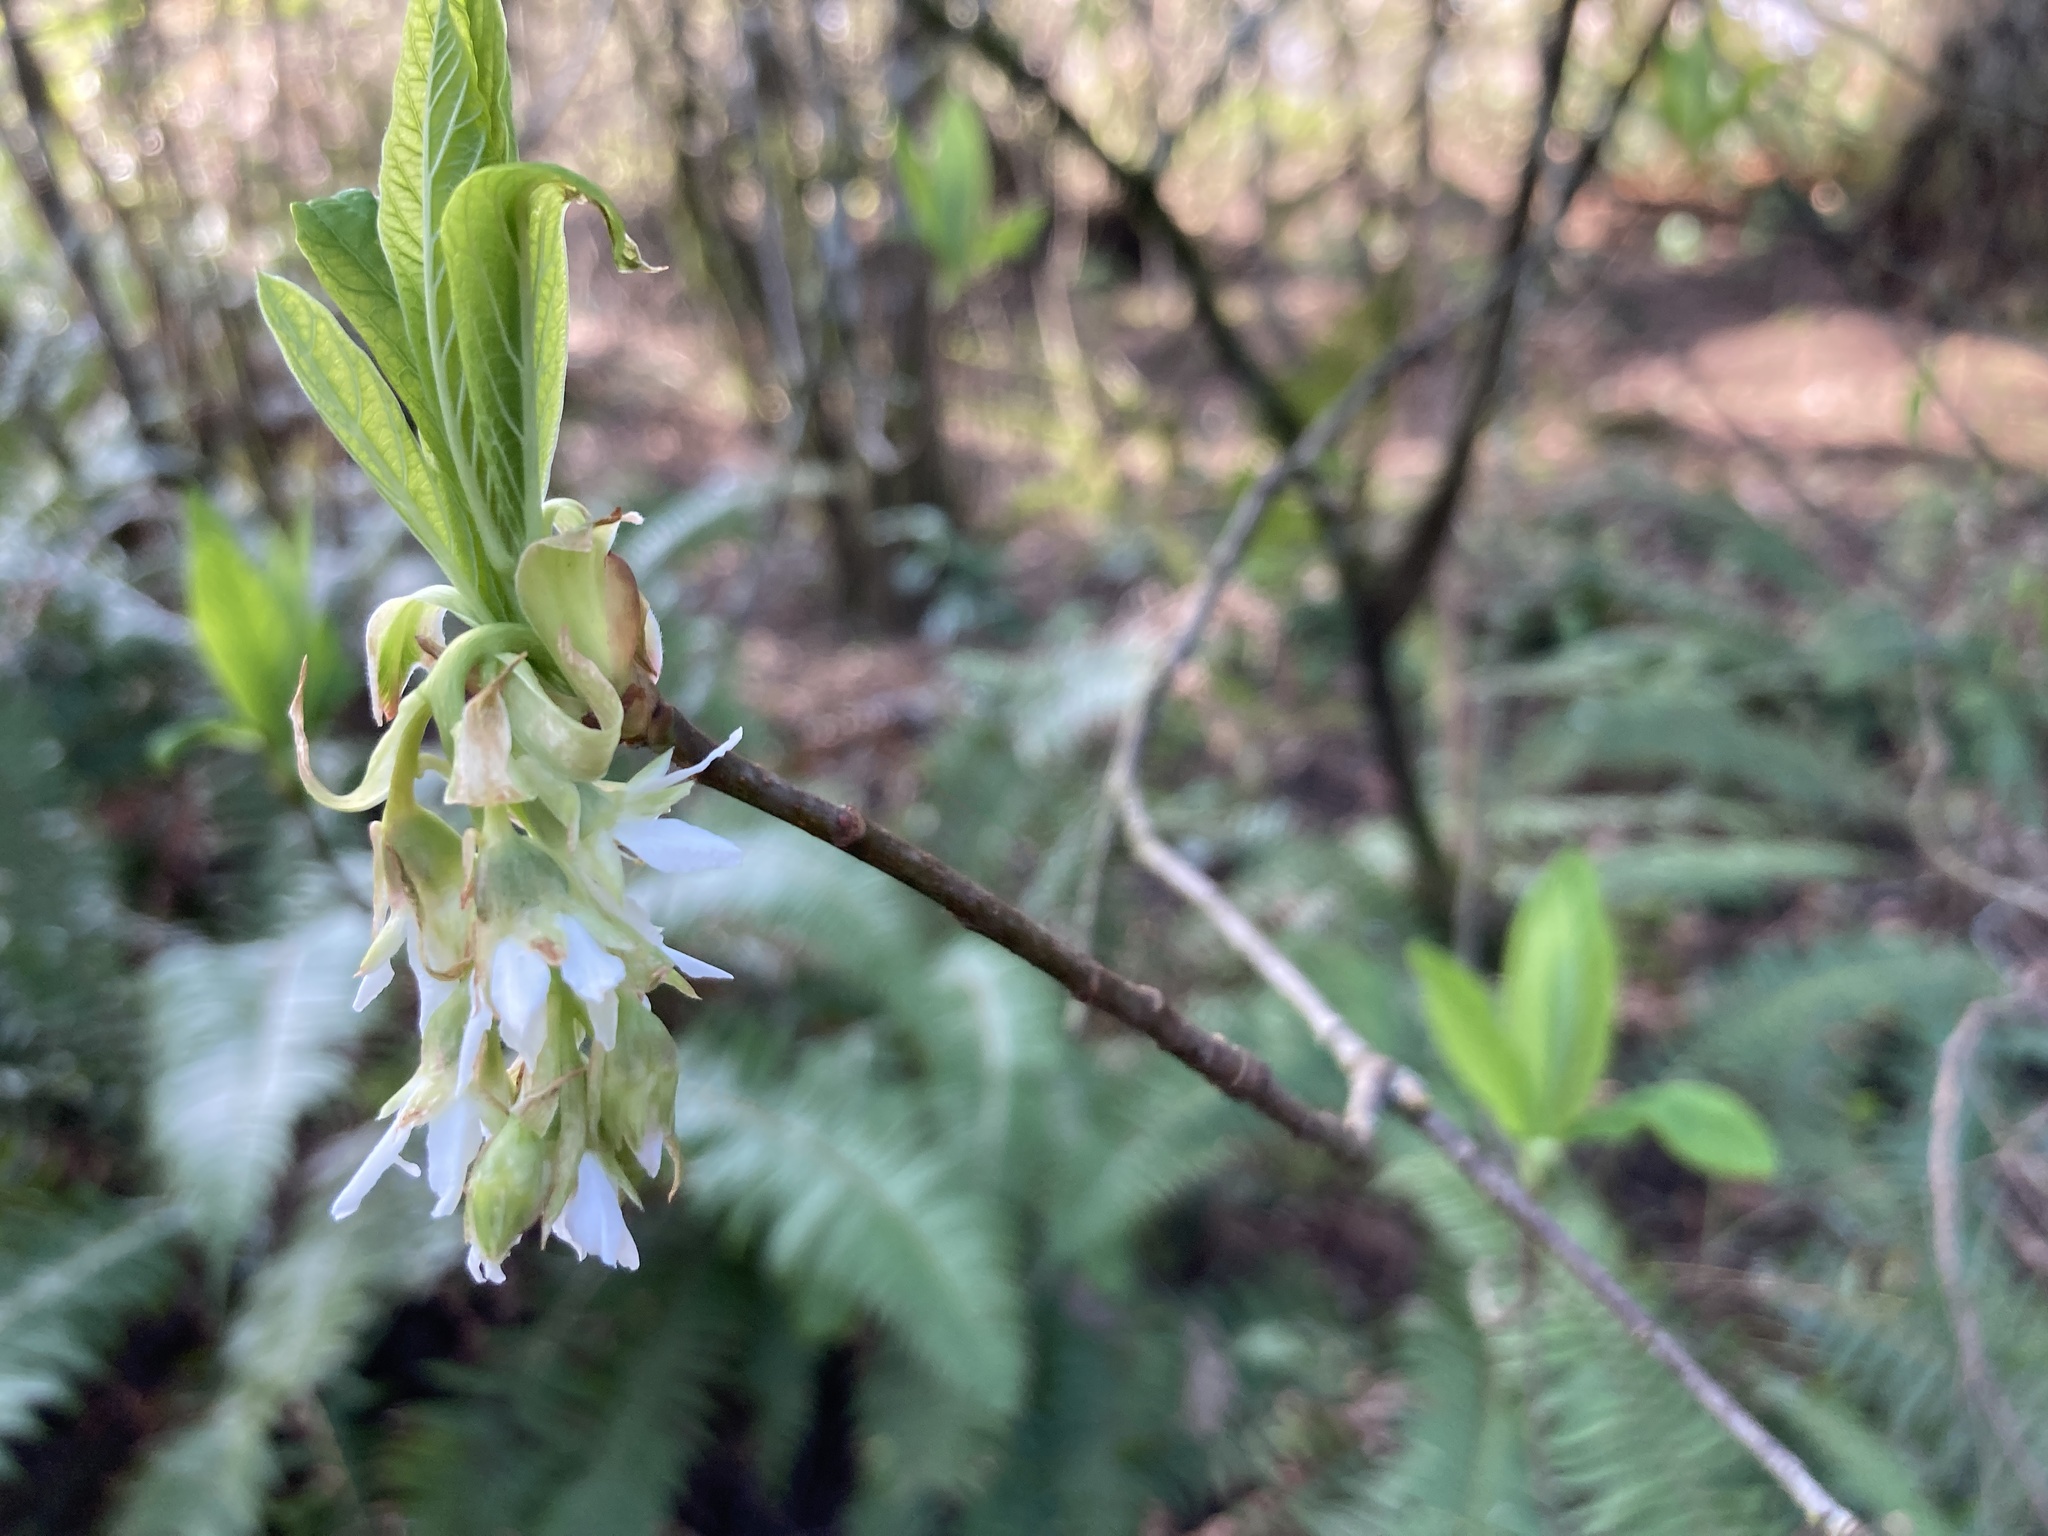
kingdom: Plantae
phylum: Tracheophyta
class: Magnoliopsida
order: Rosales
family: Rosaceae
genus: Oemleria
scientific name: Oemleria cerasiformis
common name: Osoberry
